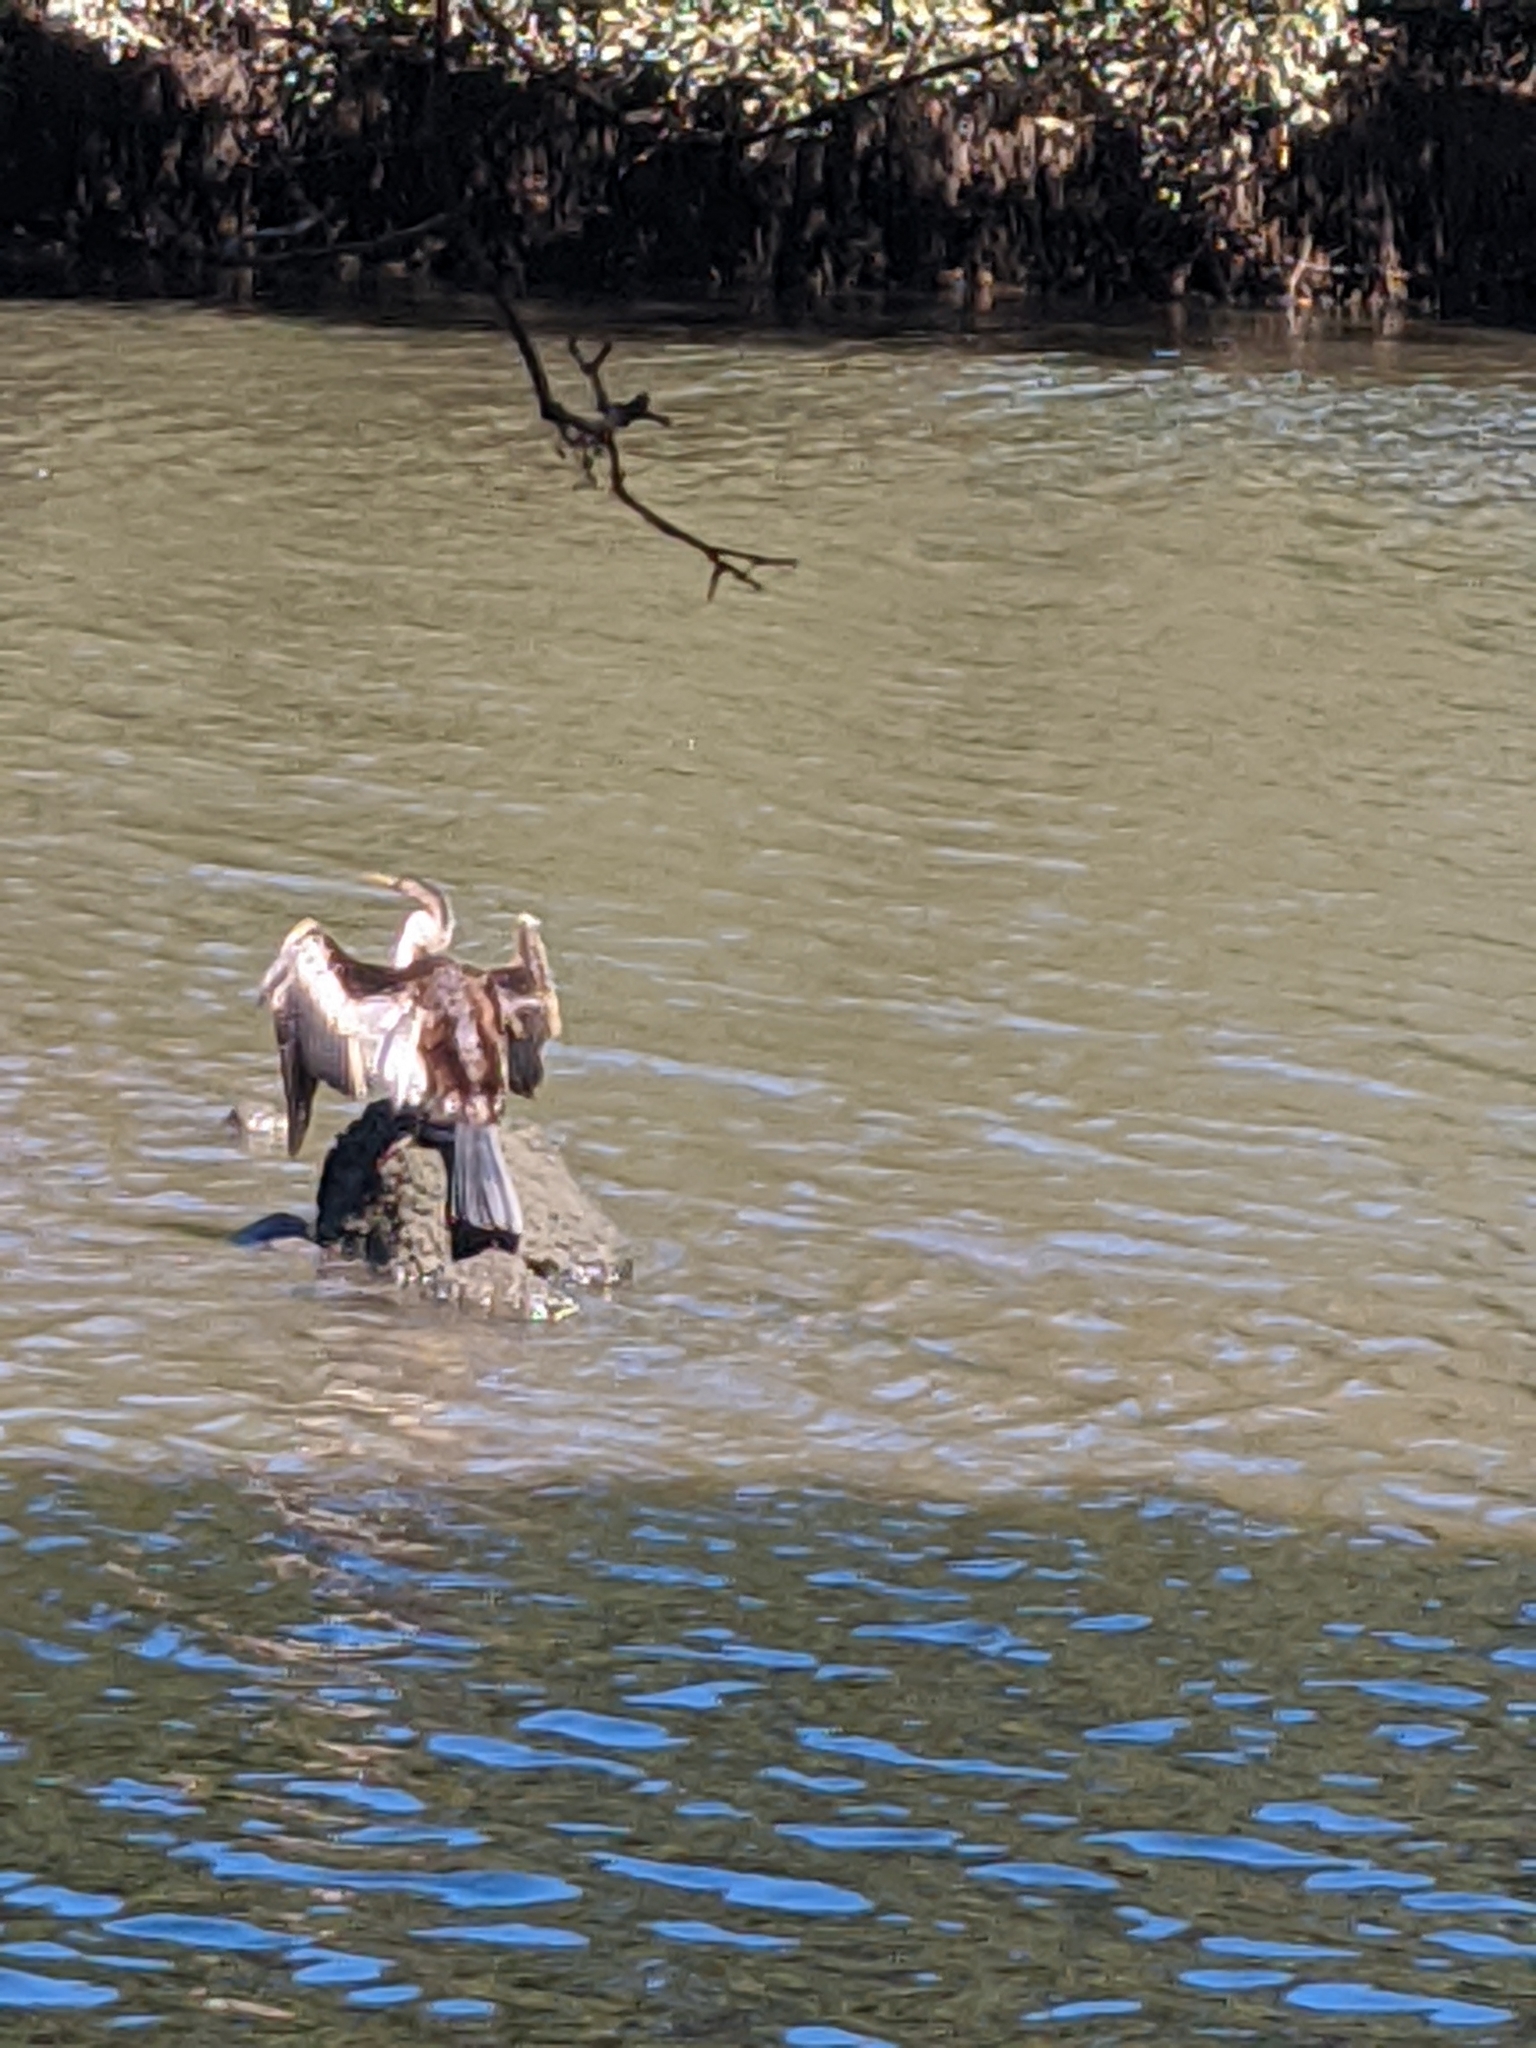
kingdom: Animalia
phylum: Chordata
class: Aves
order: Suliformes
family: Anhingidae
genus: Anhinga
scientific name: Anhinga novaehollandiae
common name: Australasian darter
